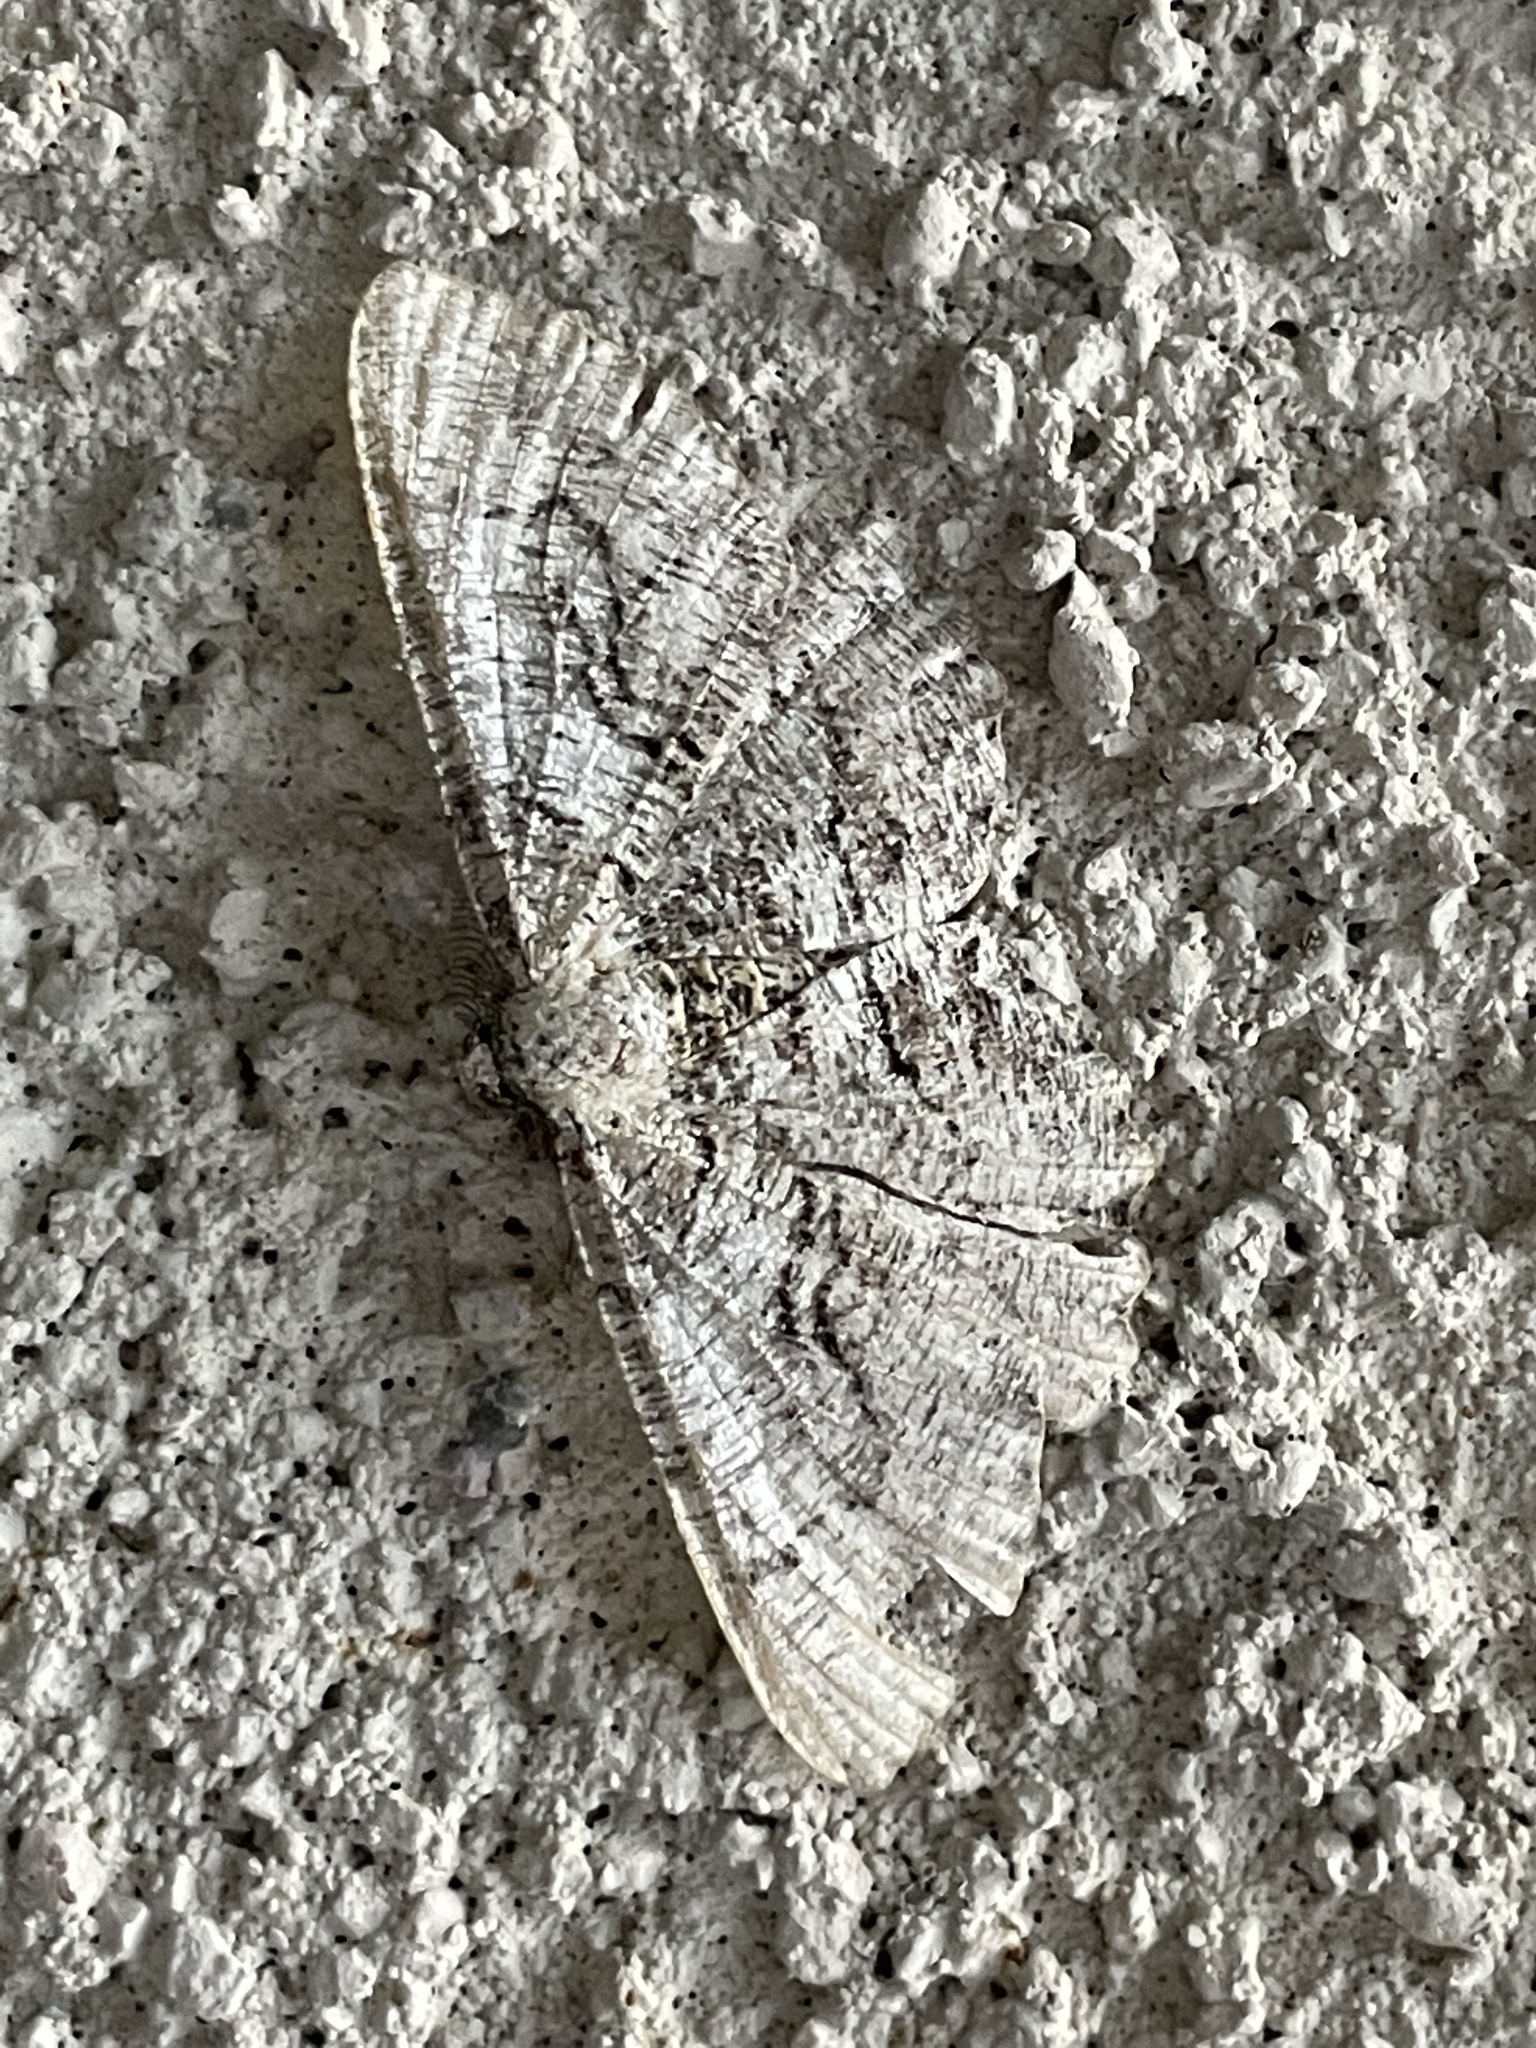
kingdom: Animalia
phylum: Arthropoda
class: Insecta
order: Lepidoptera
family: Geometridae
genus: Cymatophora
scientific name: Cymatophora approximaria
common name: Giant gray moth
